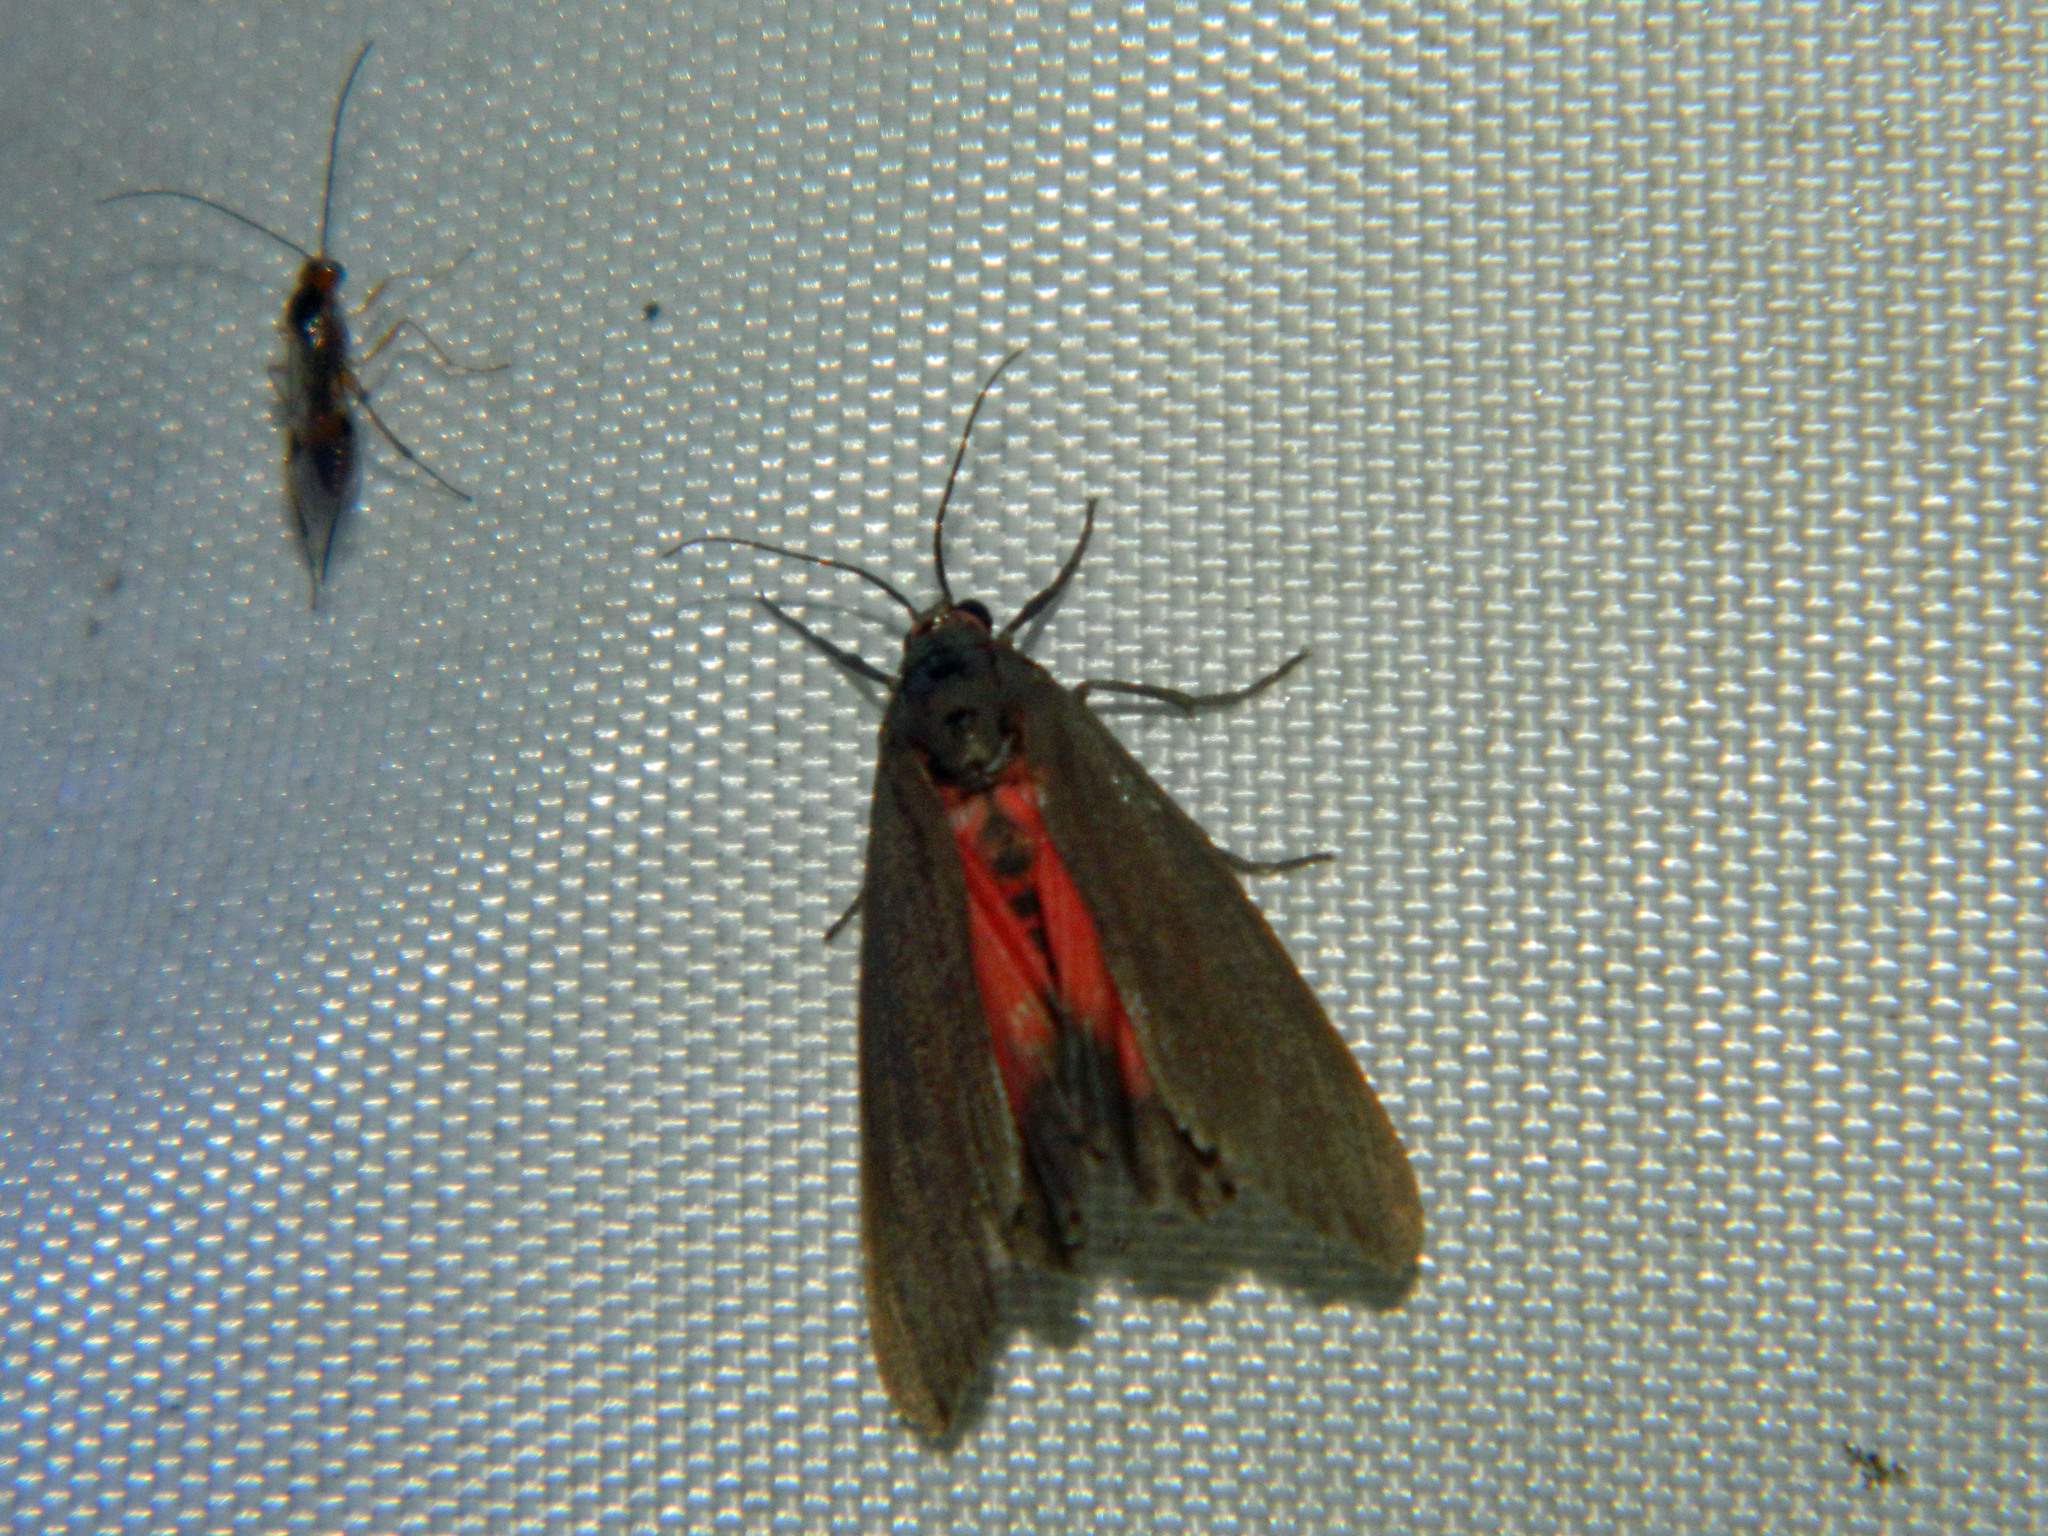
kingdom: Animalia
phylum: Arthropoda
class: Insecta
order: Lepidoptera
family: Erebidae
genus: Virbia
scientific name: Virbia laeta
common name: Joyful holomelina moth
